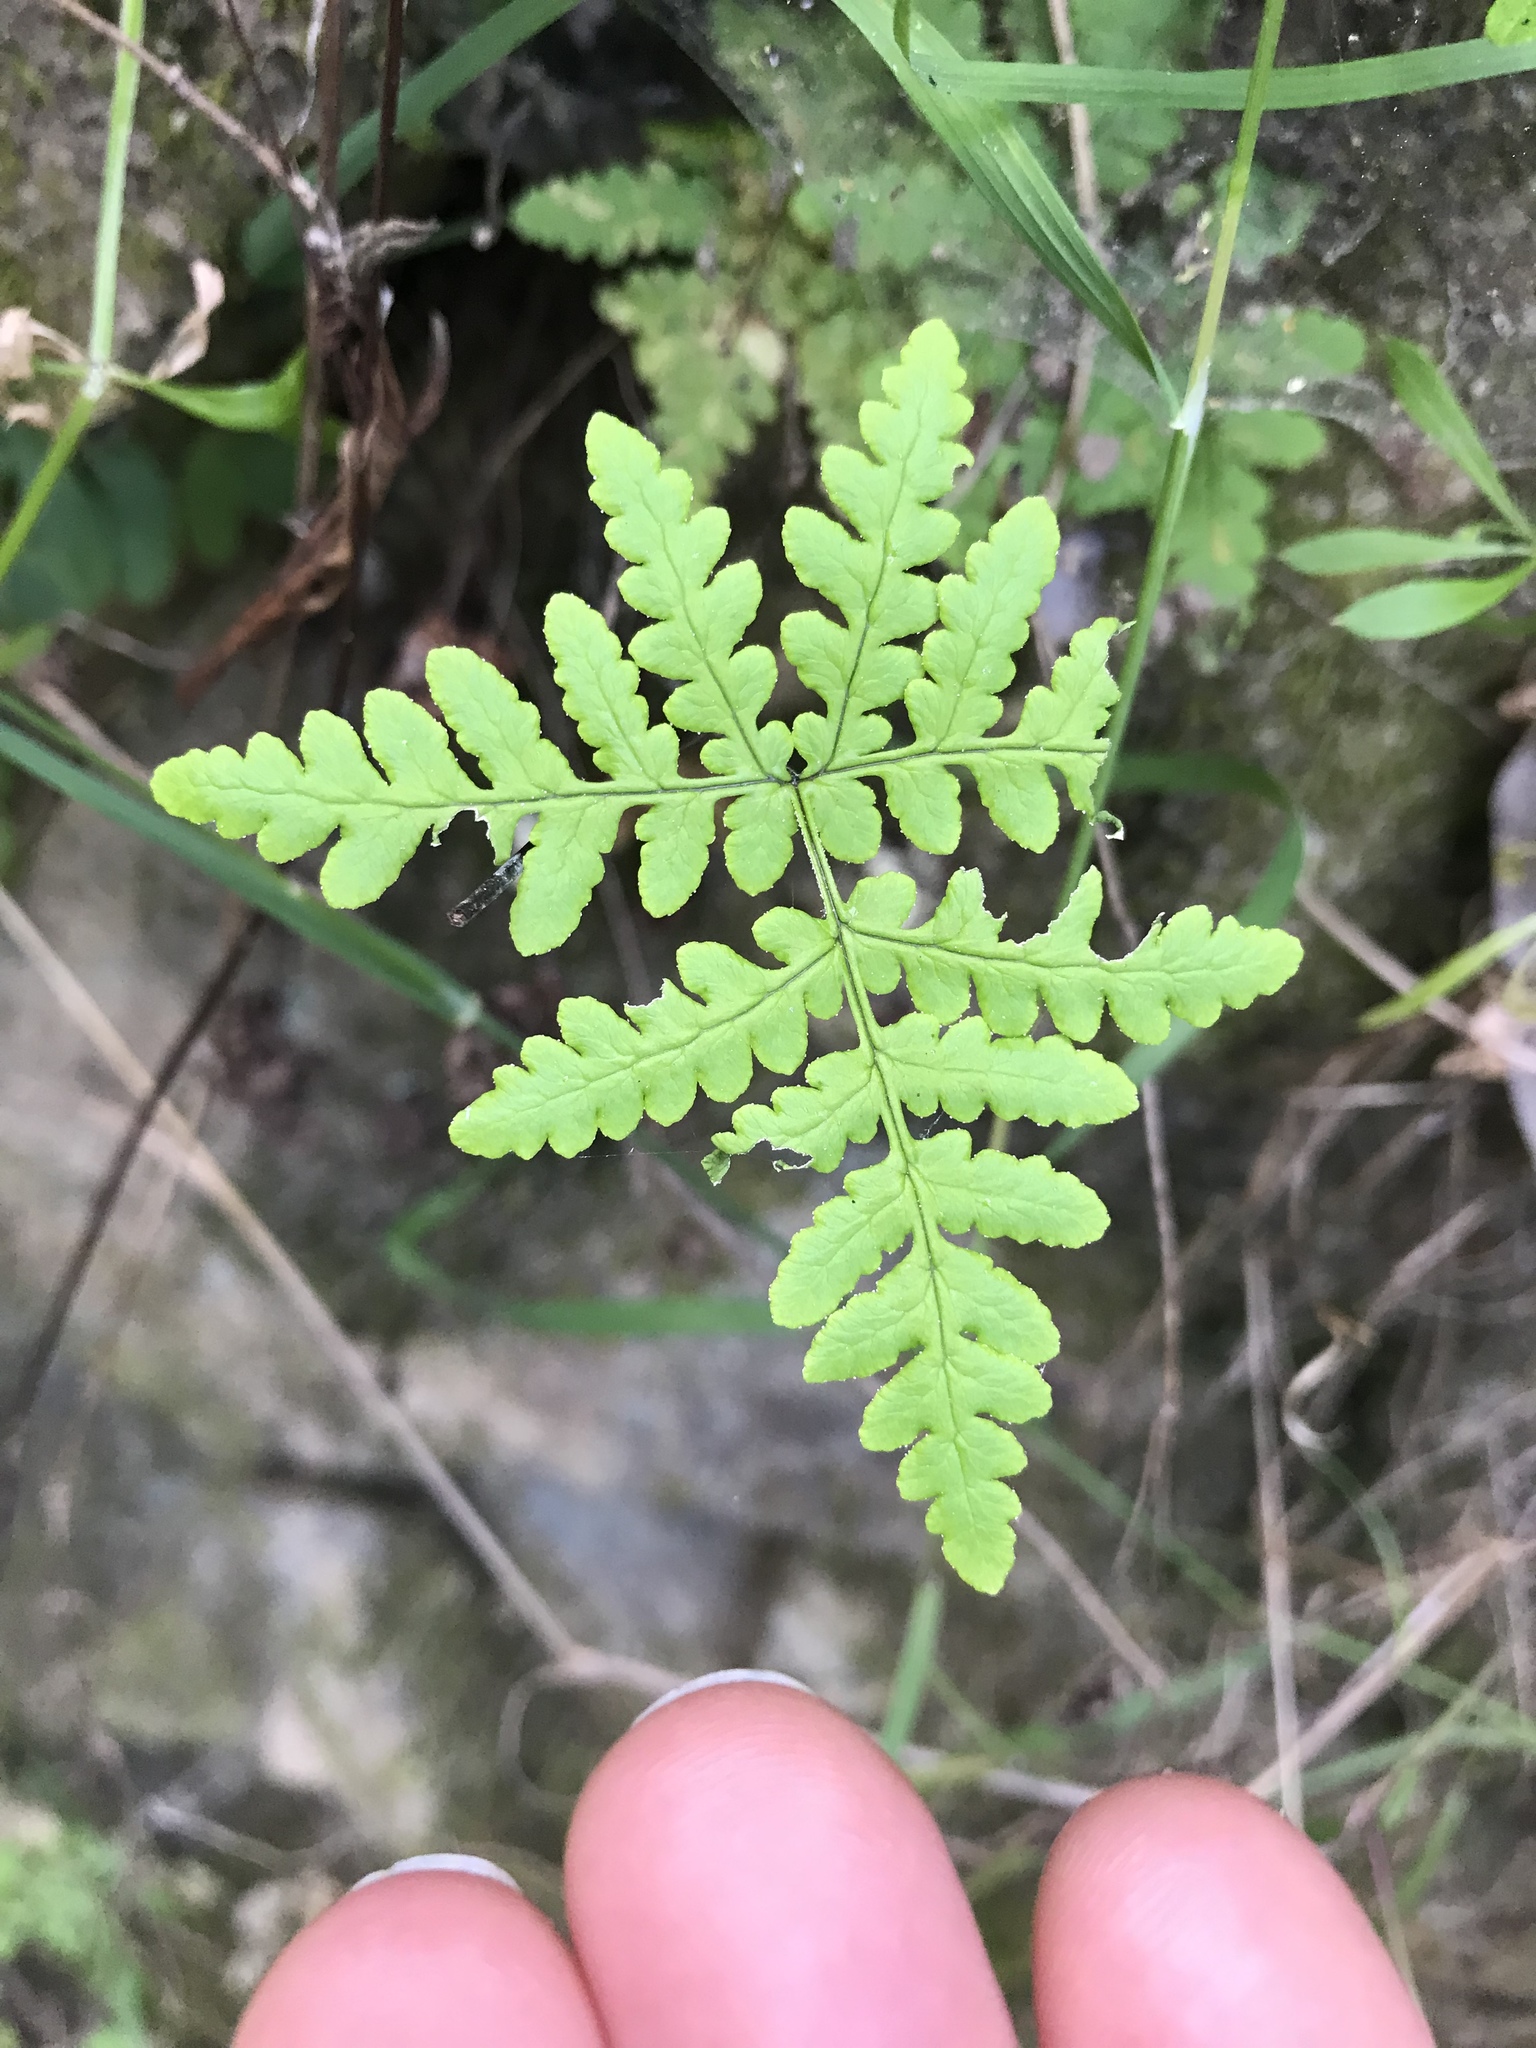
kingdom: Plantae
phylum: Tracheophyta
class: Polypodiopsida
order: Polypodiales
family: Pteridaceae
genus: Pentagramma
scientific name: Pentagramma triangularis
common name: Gold fern
